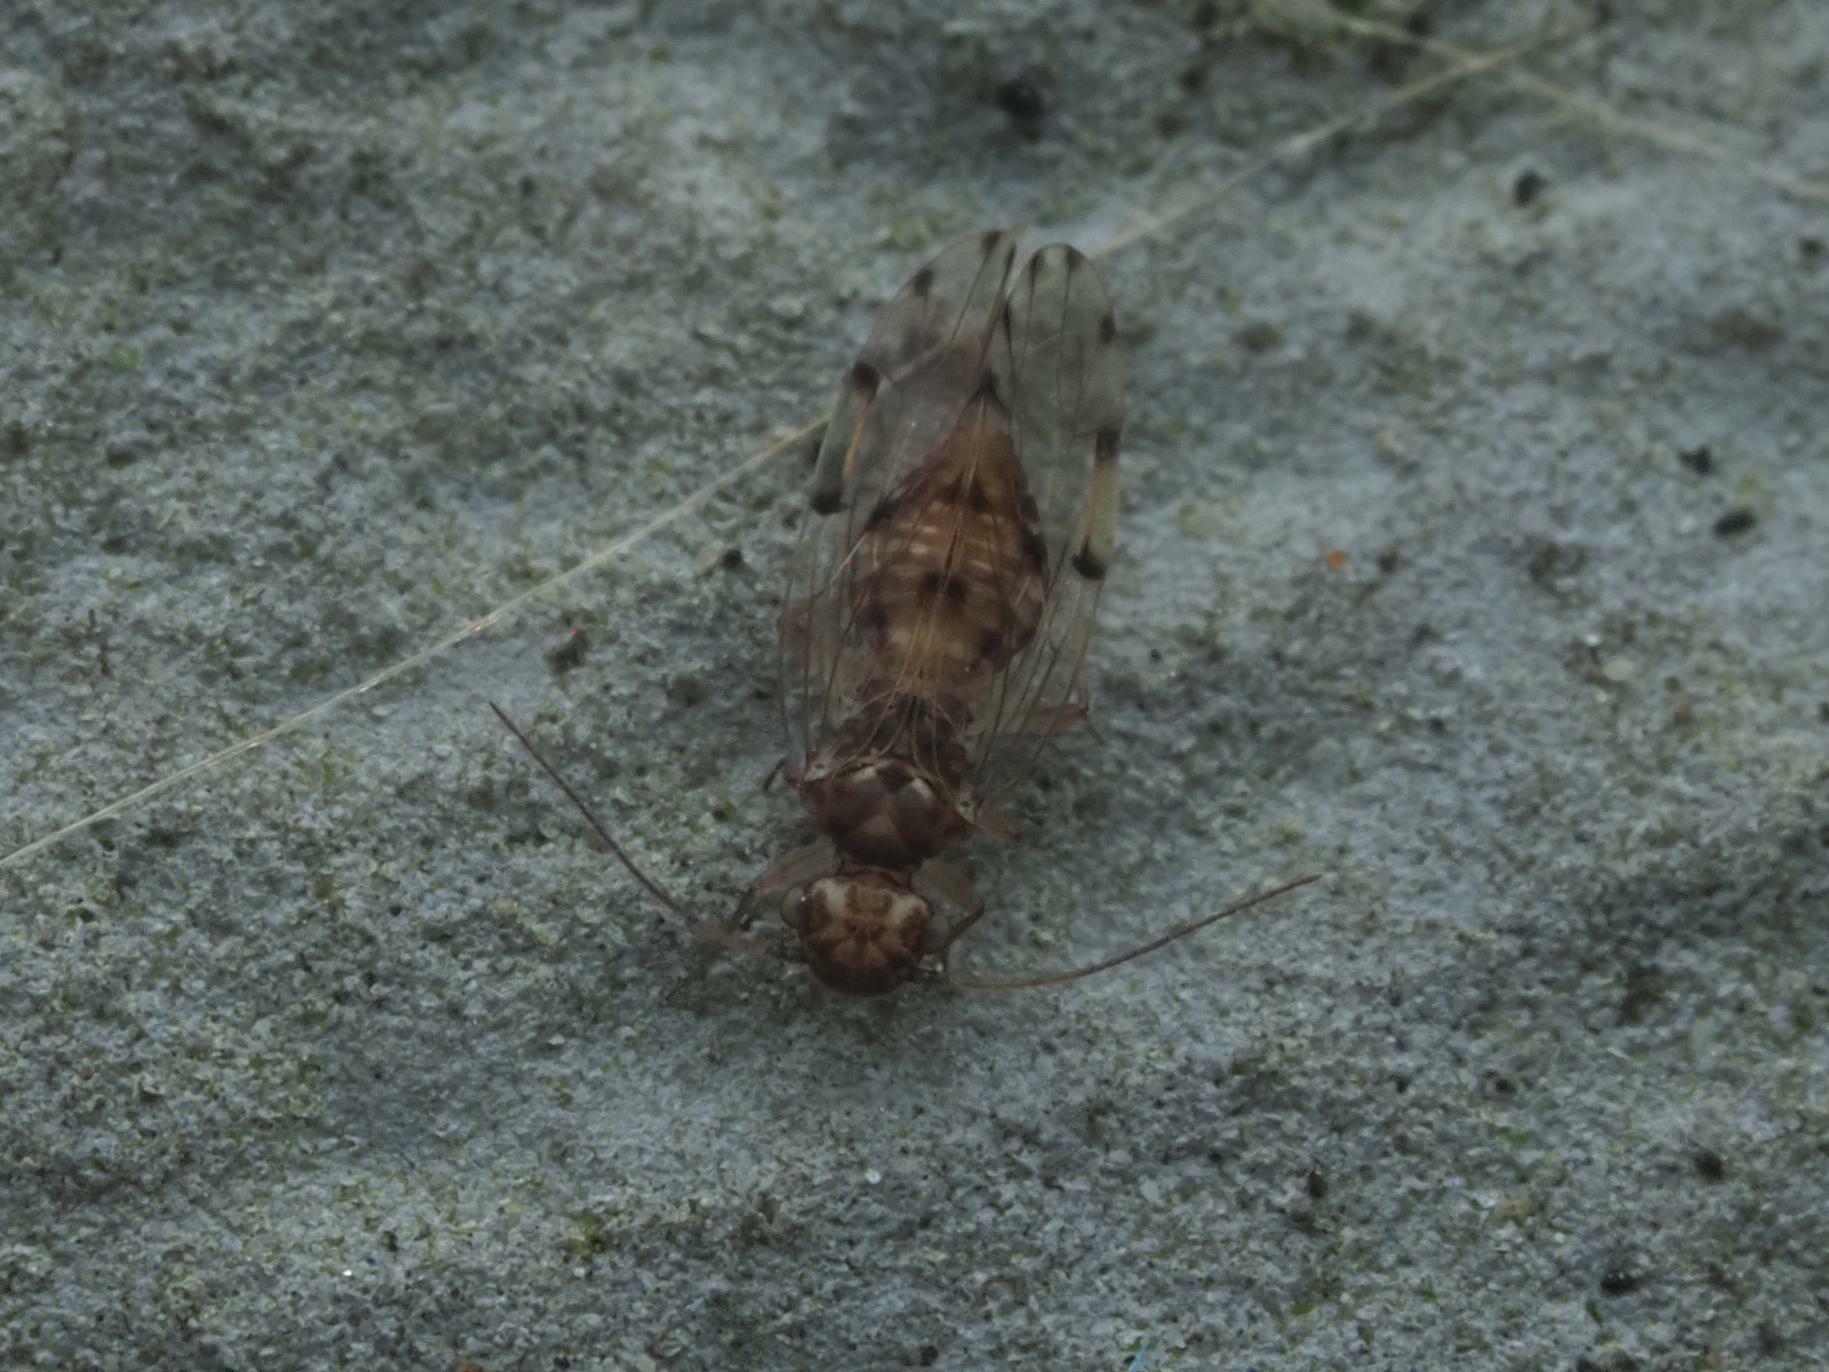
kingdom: Animalia
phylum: Arthropoda
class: Insecta
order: Psocodea
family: Ectopsocidae
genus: Ectopsocus
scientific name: Ectopsocus petersi
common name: Medium-sized bark louse
